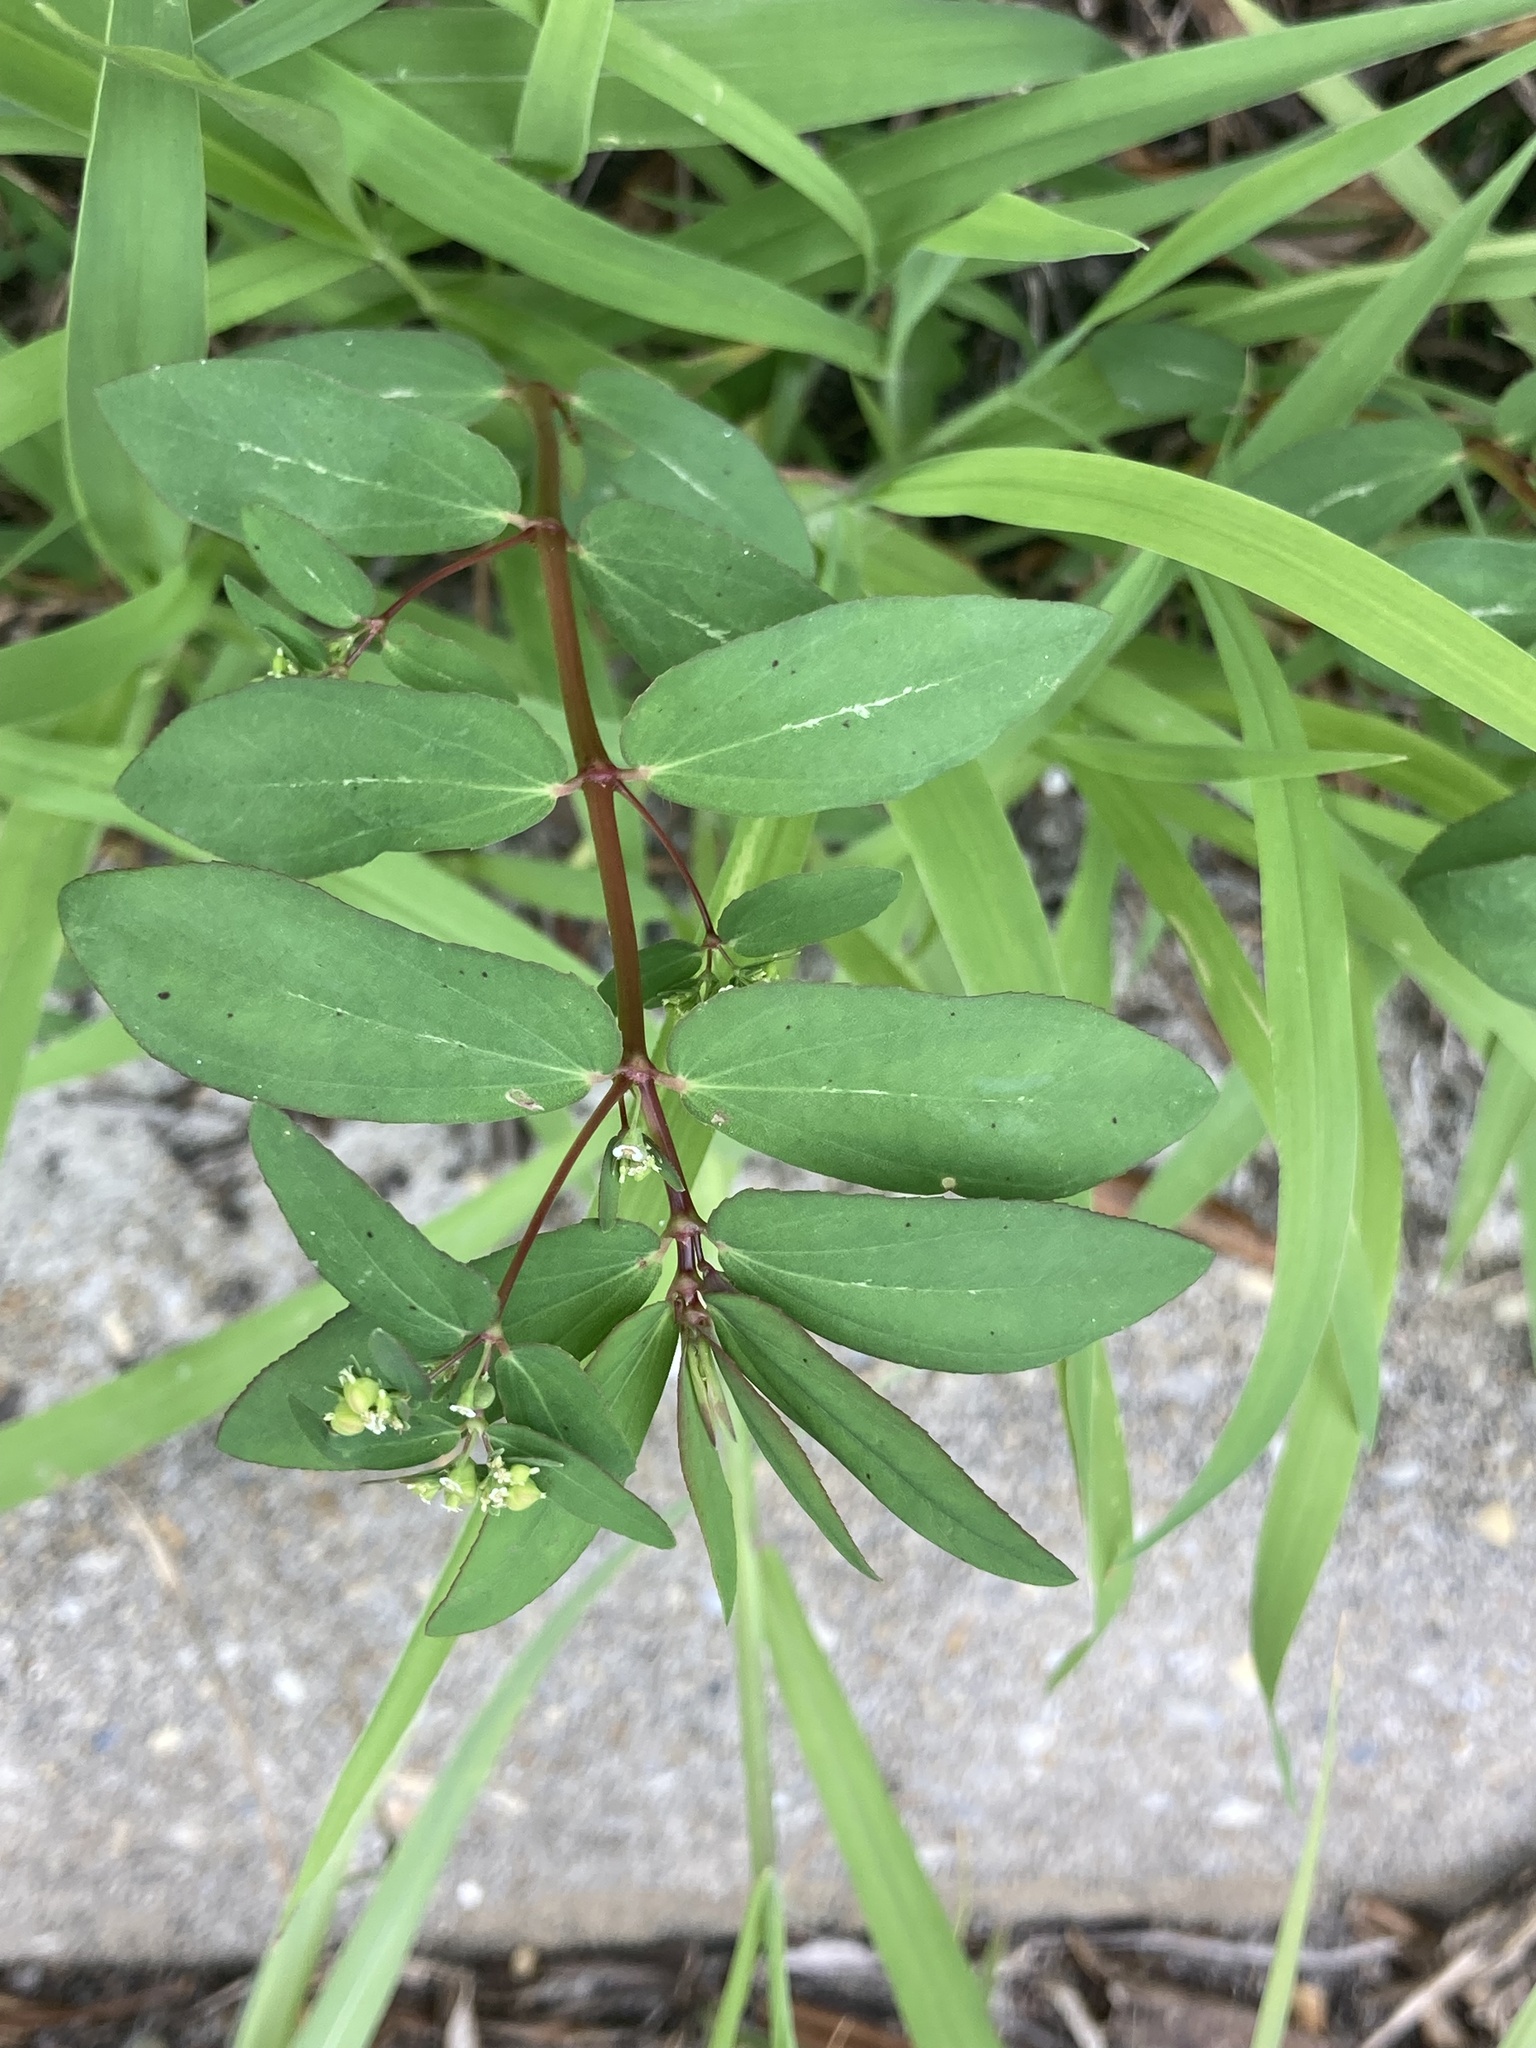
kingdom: Plantae
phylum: Tracheophyta
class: Magnoliopsida
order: Malpighiales
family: Euphorbiaceae
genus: Euphorbia
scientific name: Euphorbia hyssopifolia
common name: Hyssopleaf sandmat
